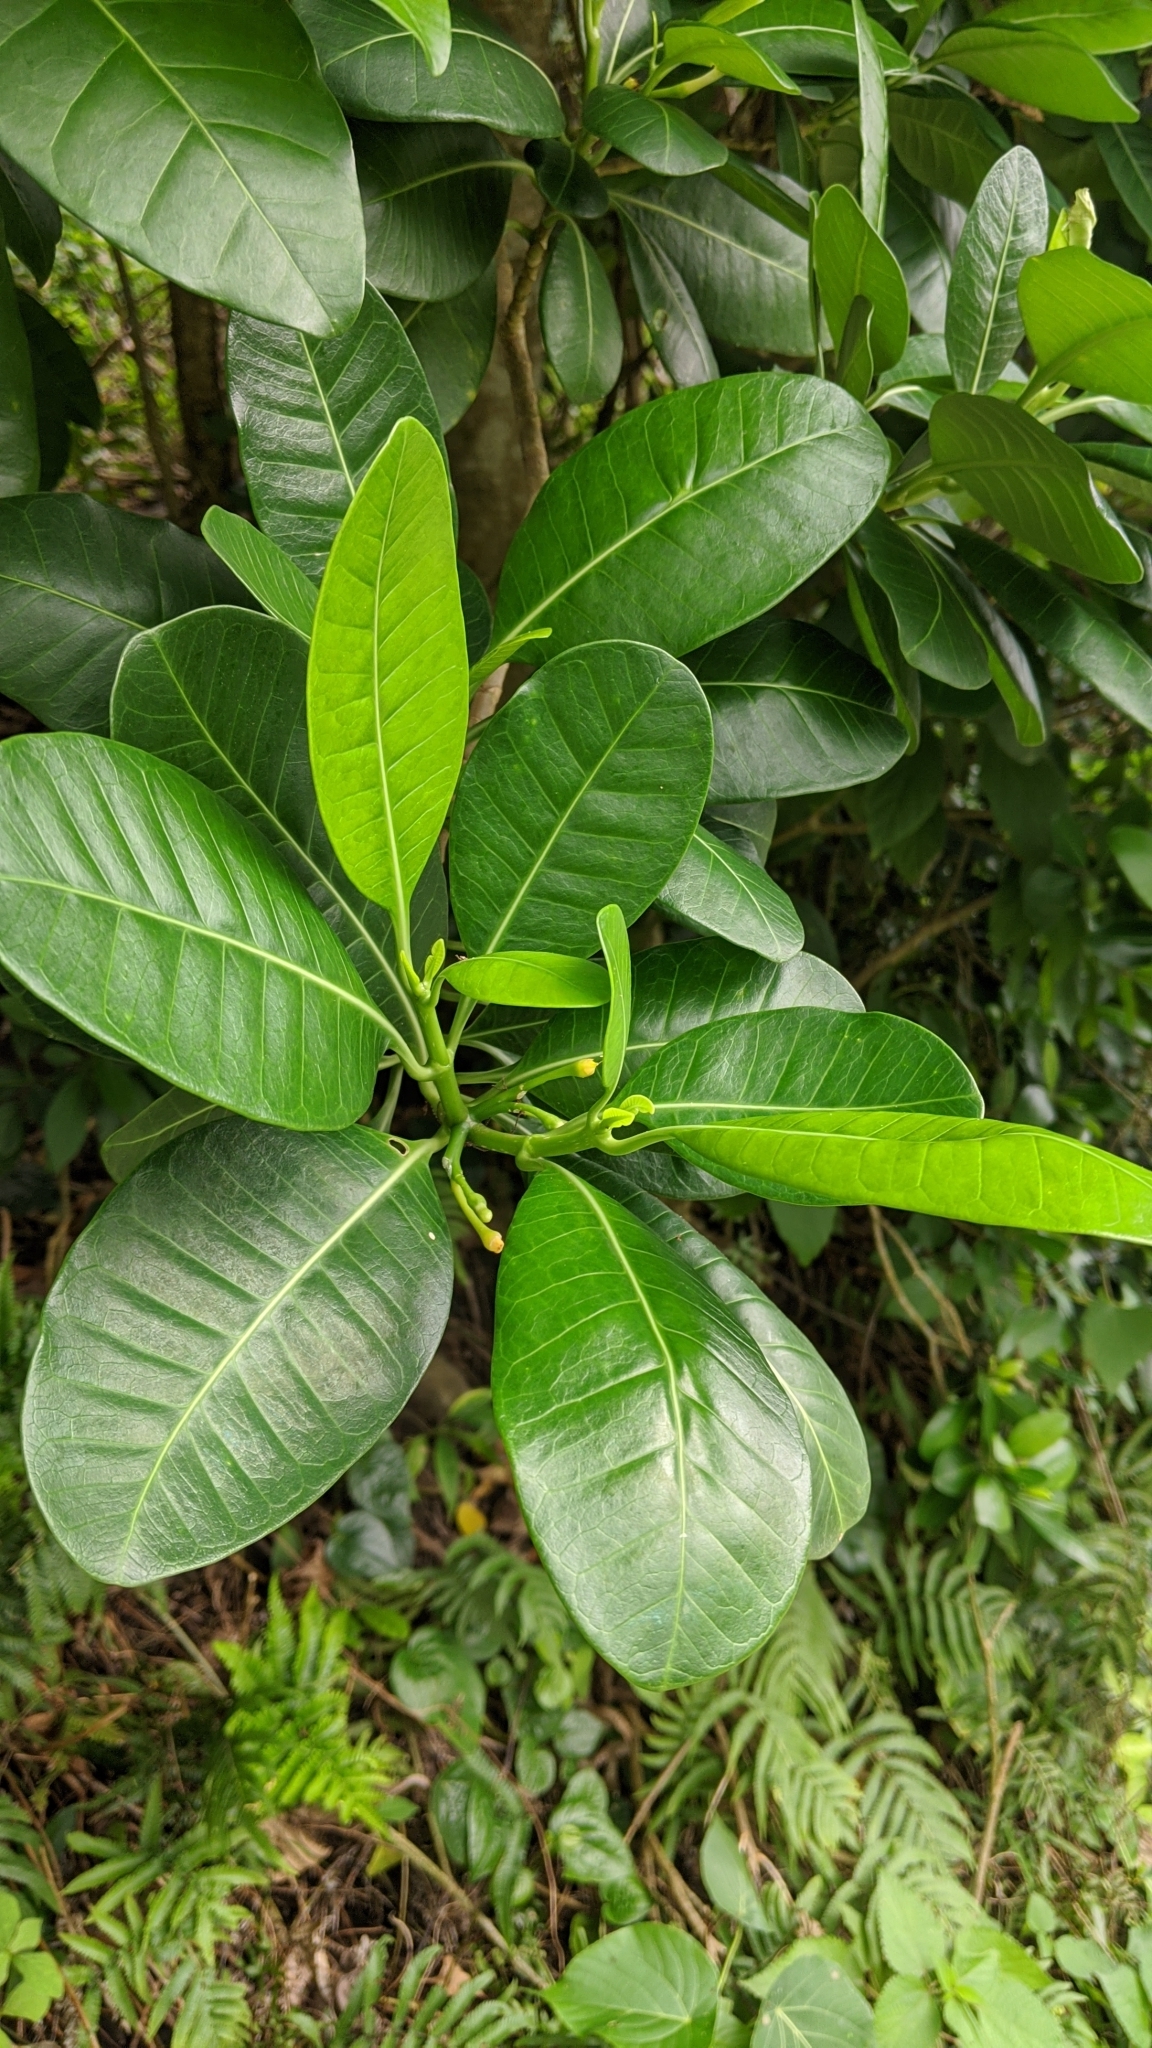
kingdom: Plantae
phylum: Tracheophyta
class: Magnoliopsida
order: Gentianales
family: Apocynaceae
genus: Tabernaemontana
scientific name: Tabernaemontana pandacaqui
